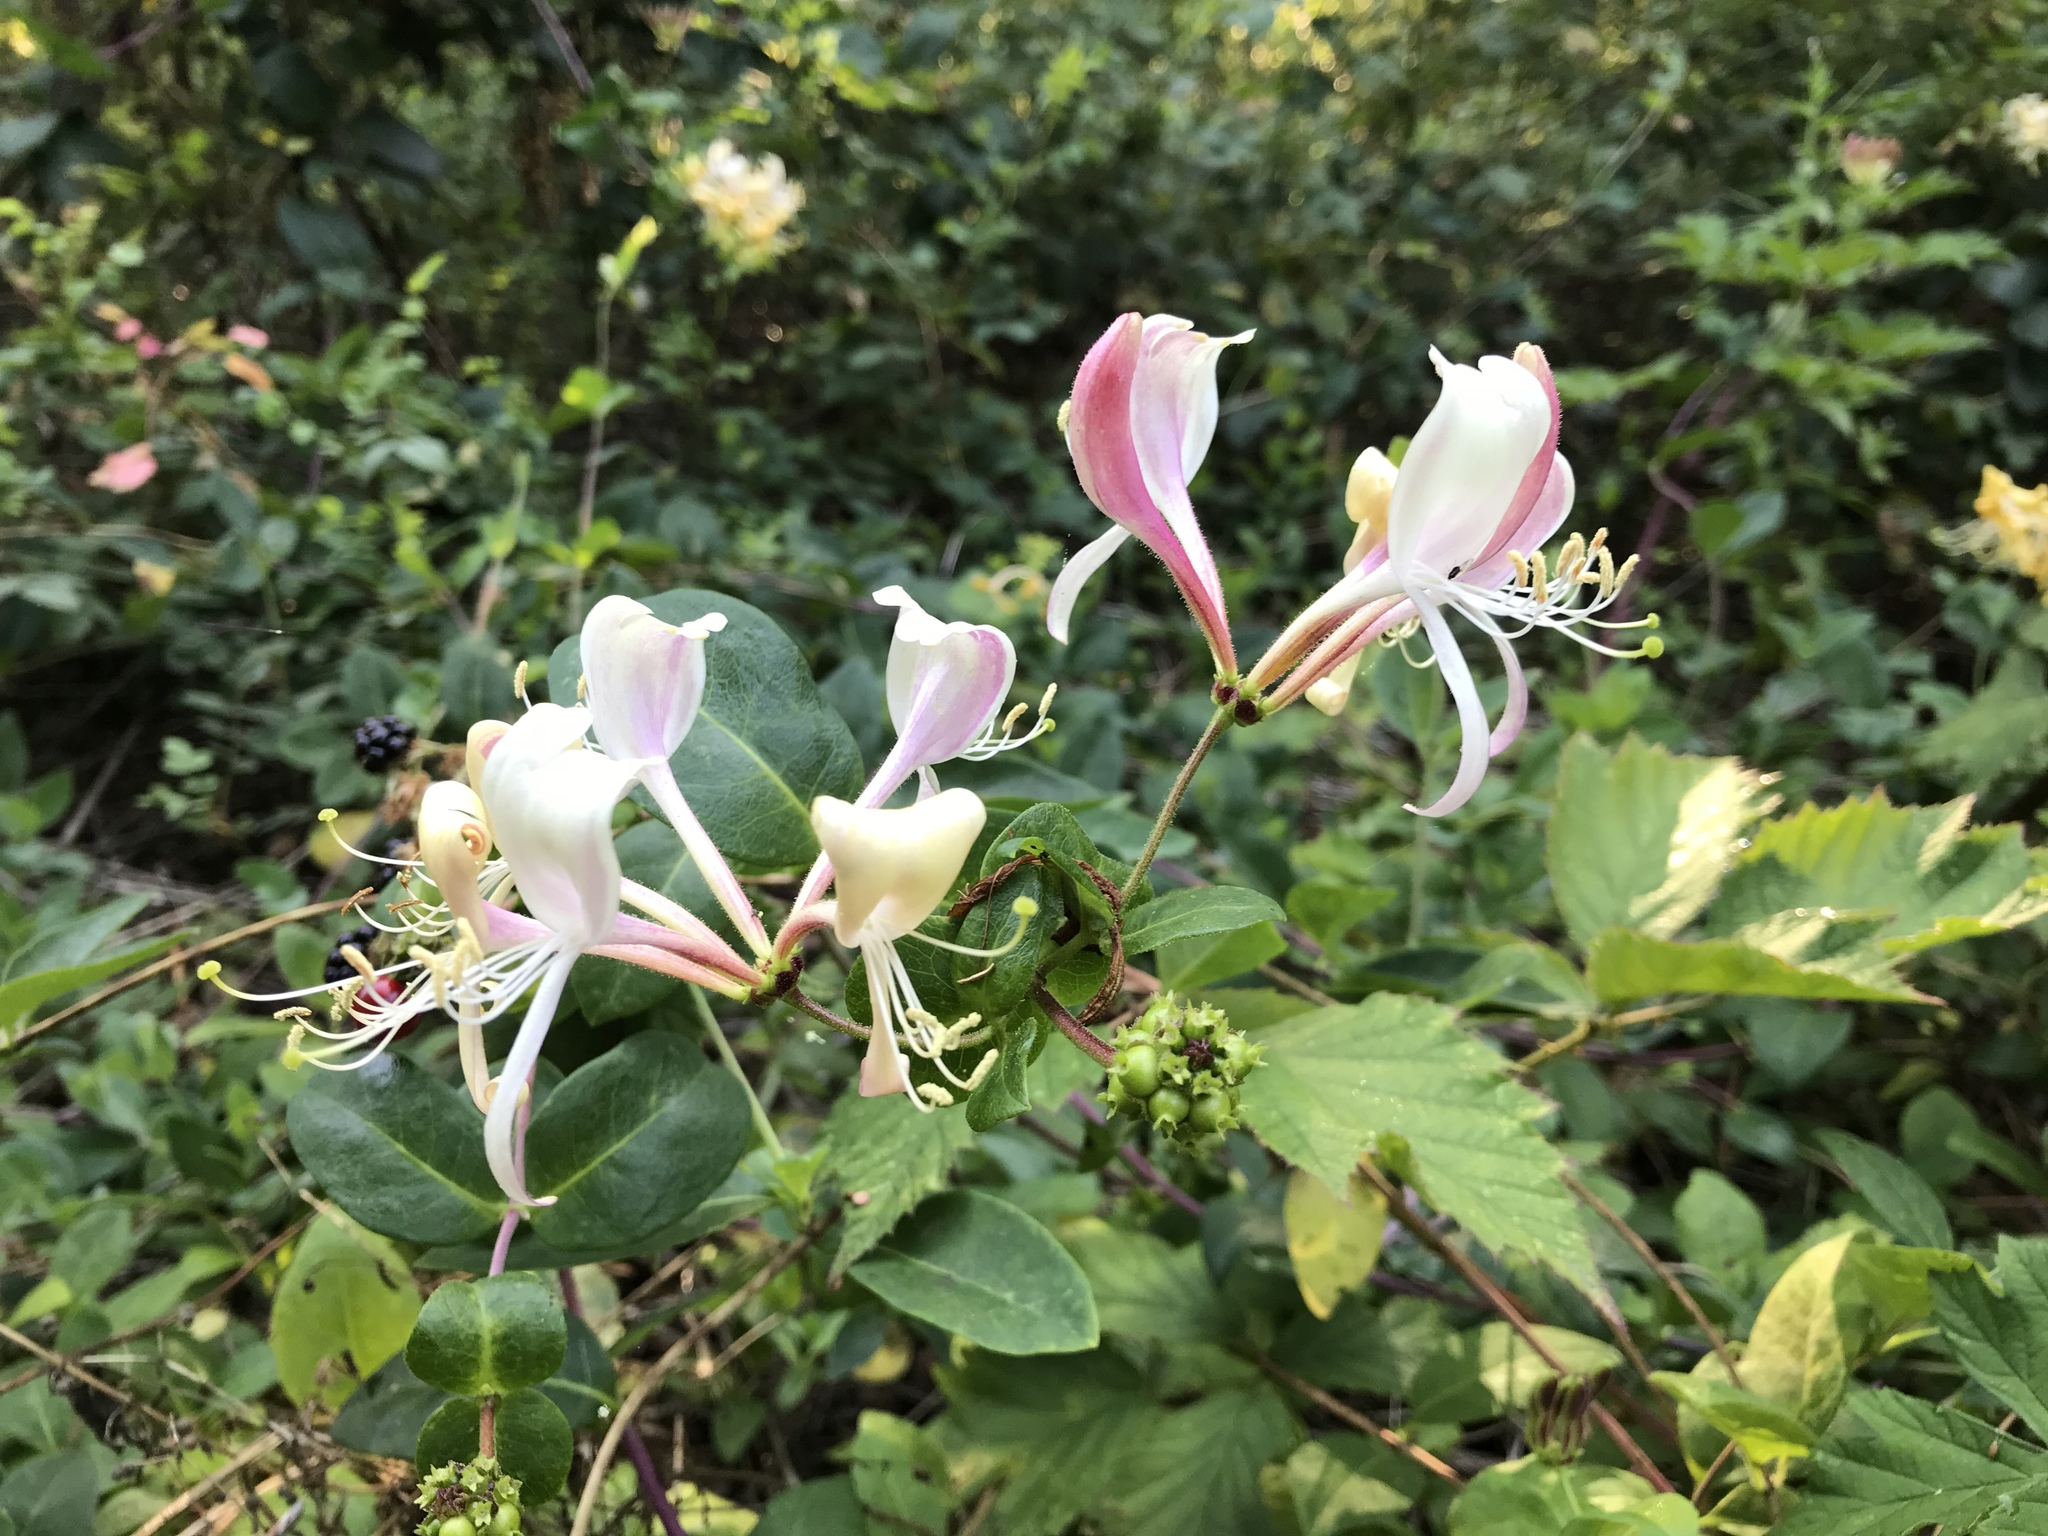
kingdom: Plantae
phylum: Tracheophyta
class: Magnoliopsida
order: Dipsacales
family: Caprifoliaceae
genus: Lonicera
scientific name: Lonicera periclymenum
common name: European honeysuckle
